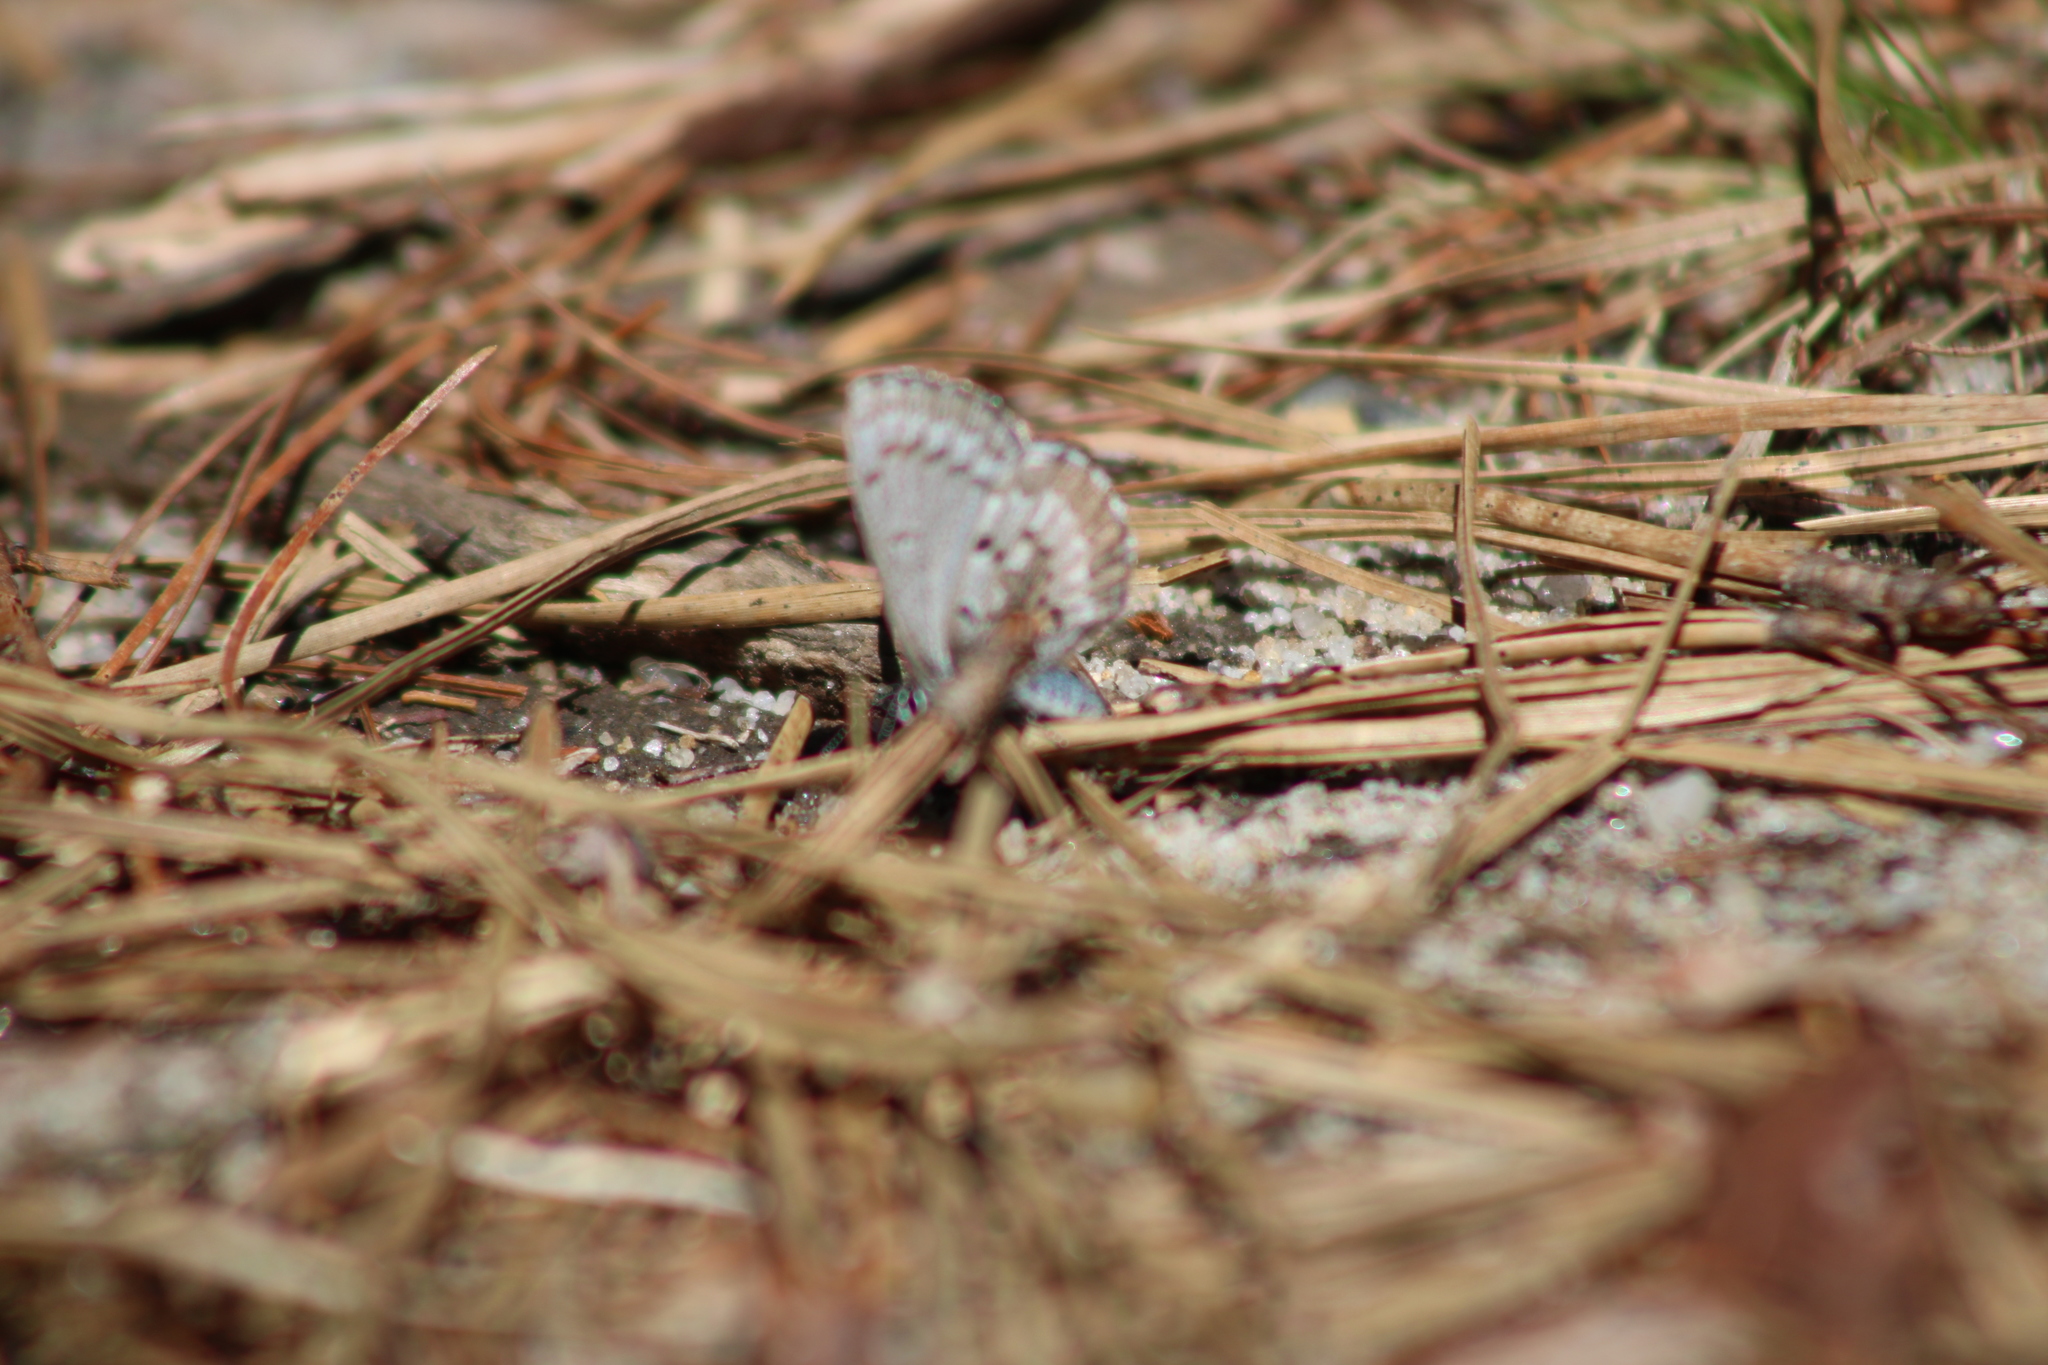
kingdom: Animalia
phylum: Arthropoda
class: Insecta
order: Lepidoptera
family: Lycaenidae
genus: Celastrina
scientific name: Celastrina ladon
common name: Spring azure
